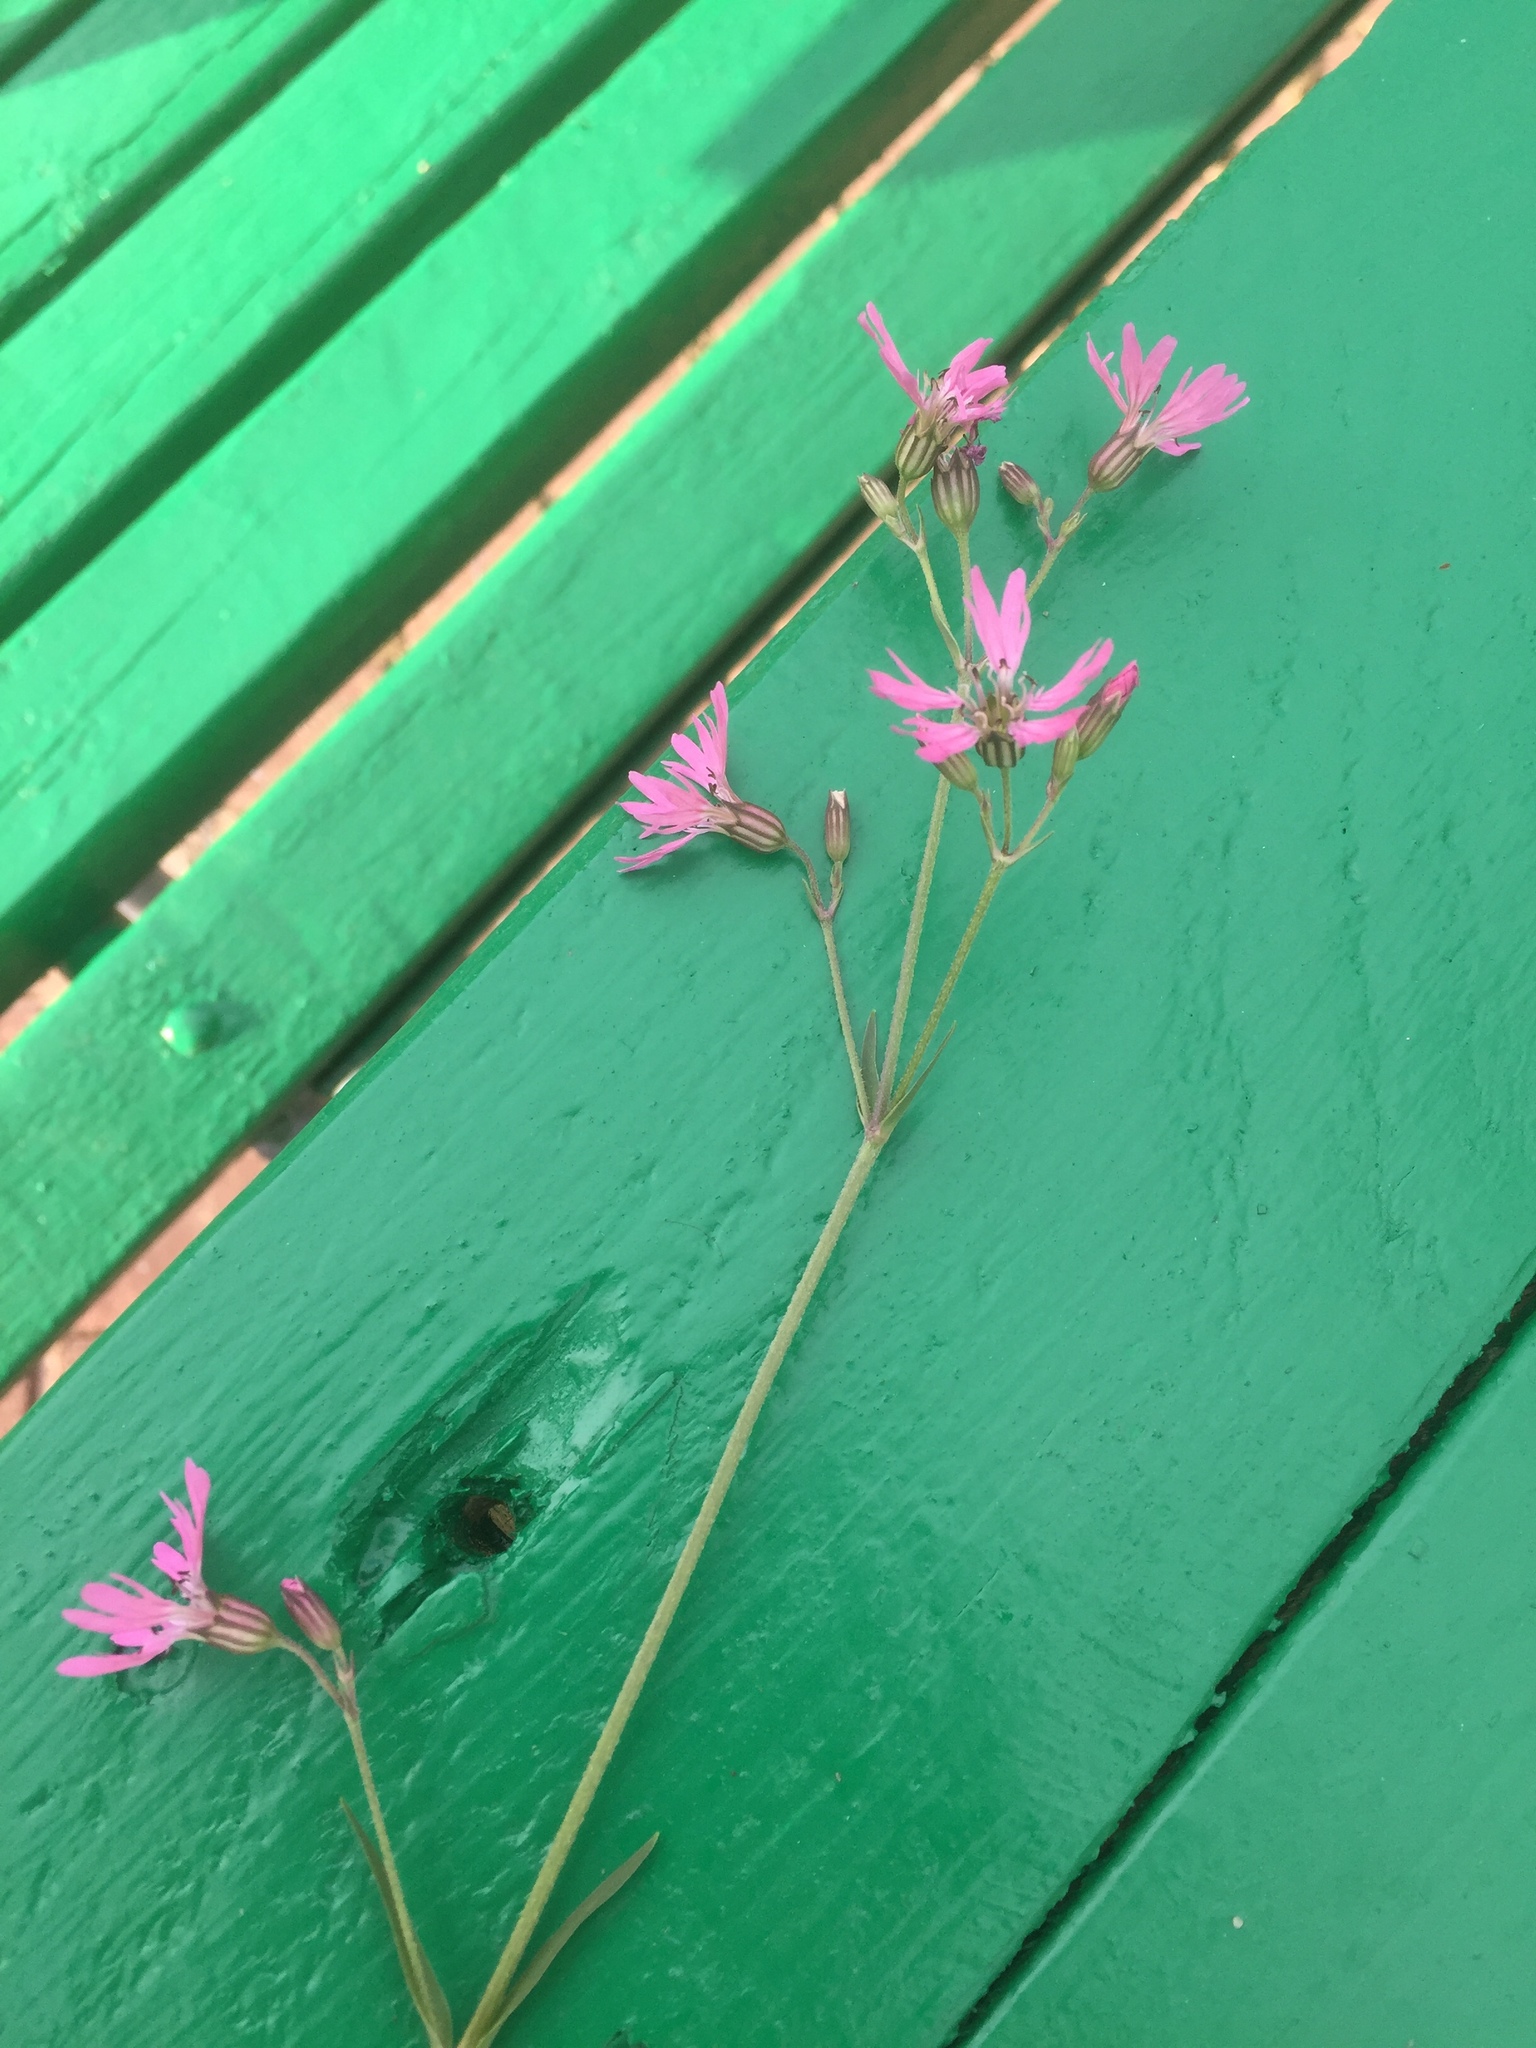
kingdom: Plantae
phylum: Tracheophyta
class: Magnoliopsida
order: Caryophyllales
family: Caryophyllaceae
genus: Silene
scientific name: Silene flos-cuculi
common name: Ragged-robin
